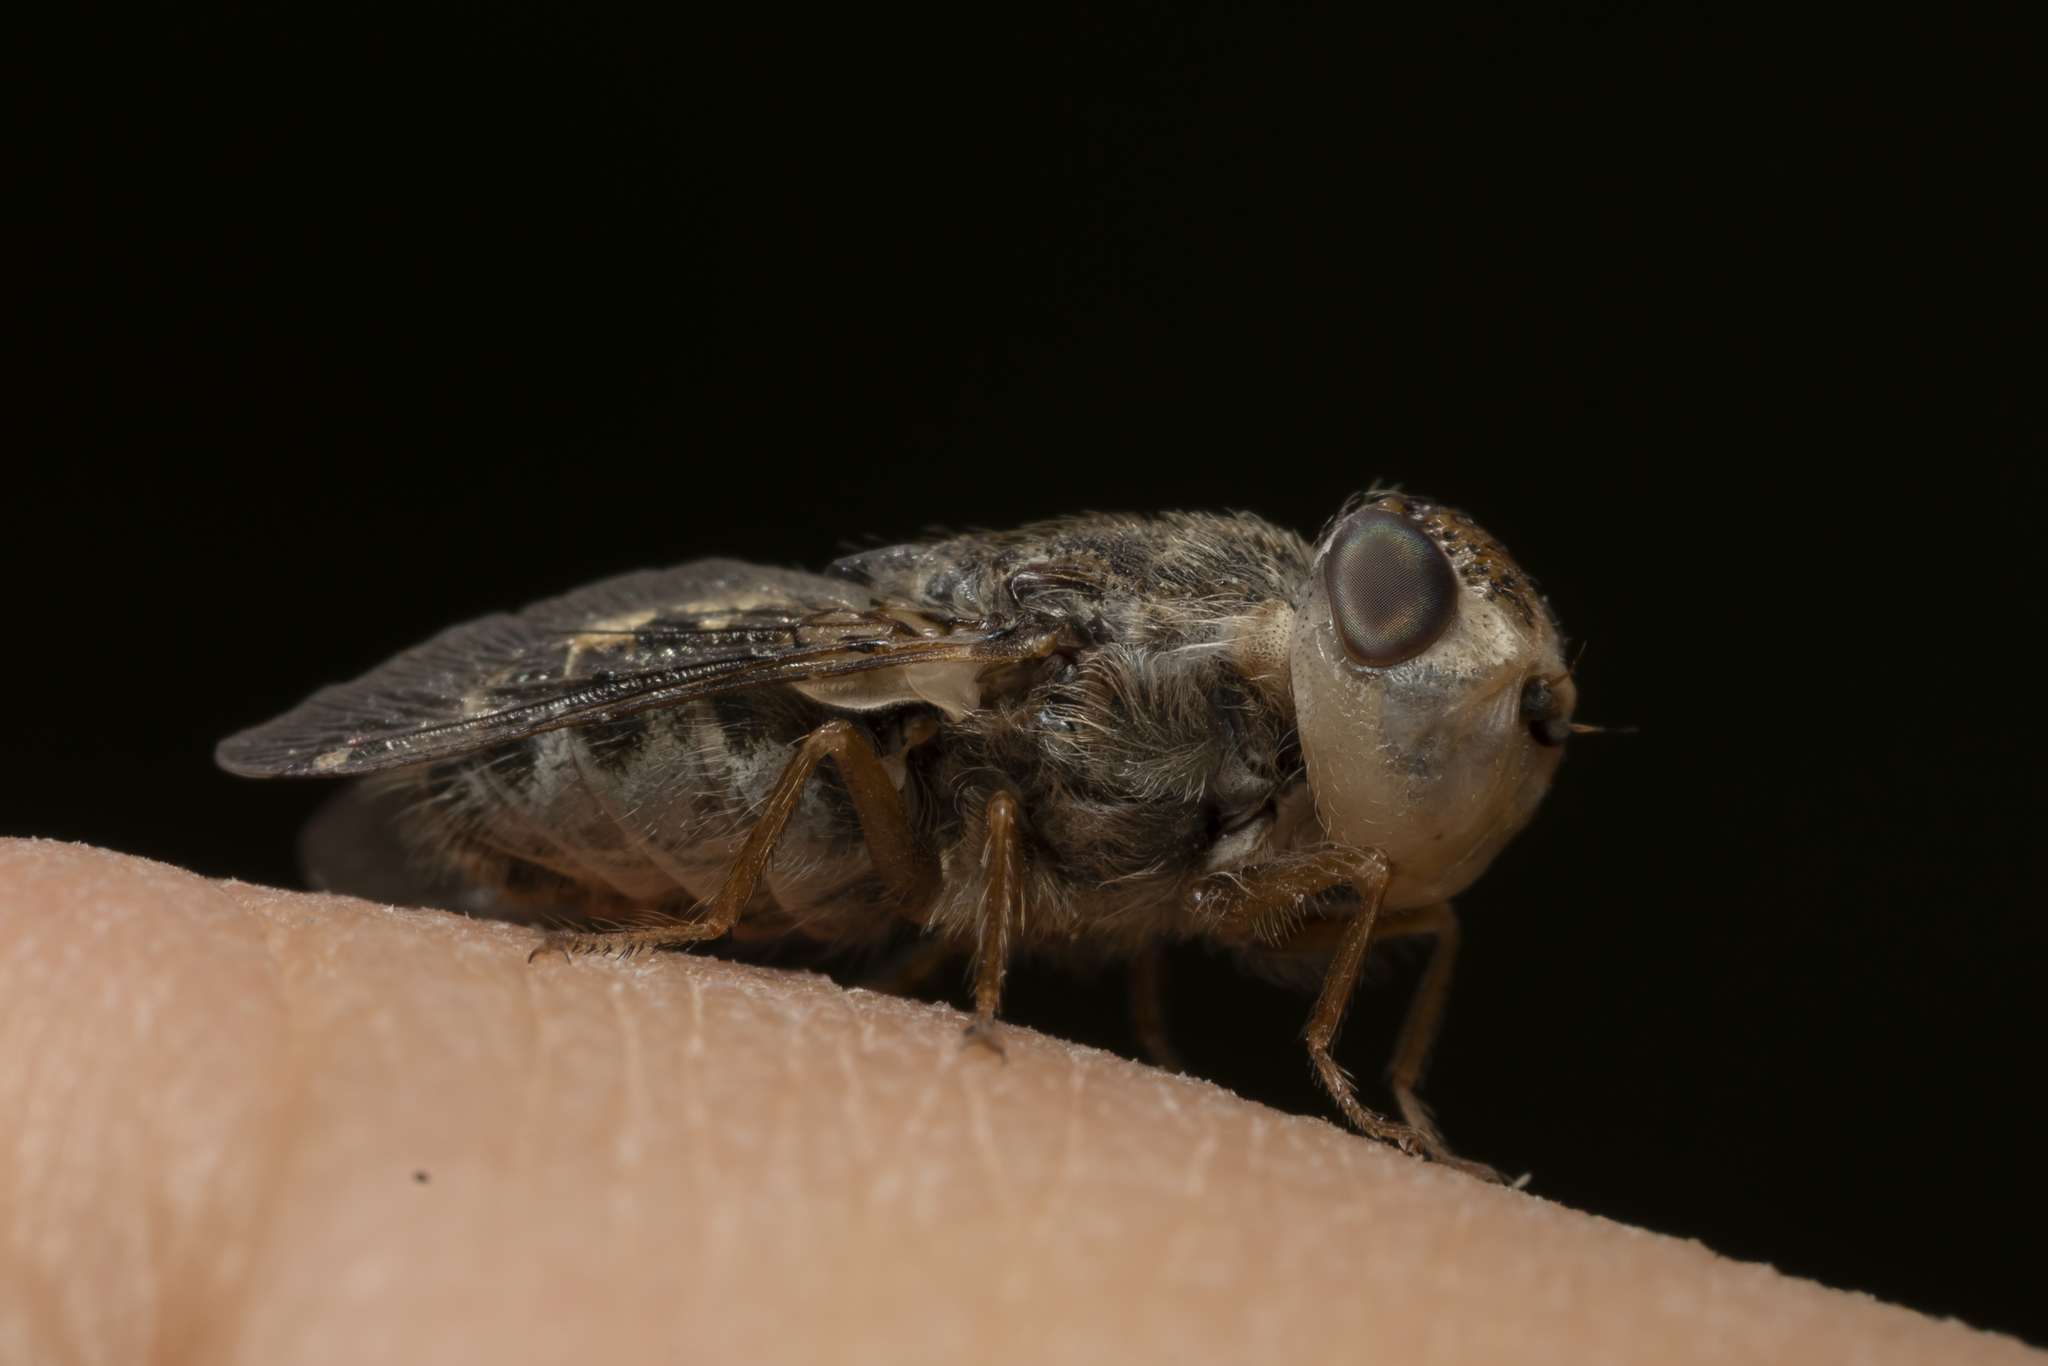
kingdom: Animalia
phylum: Arthropoda
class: Insecta
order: Diptera
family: Oestridae
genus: Oestrus
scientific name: Oestrus ovis
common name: Sheep botfly
